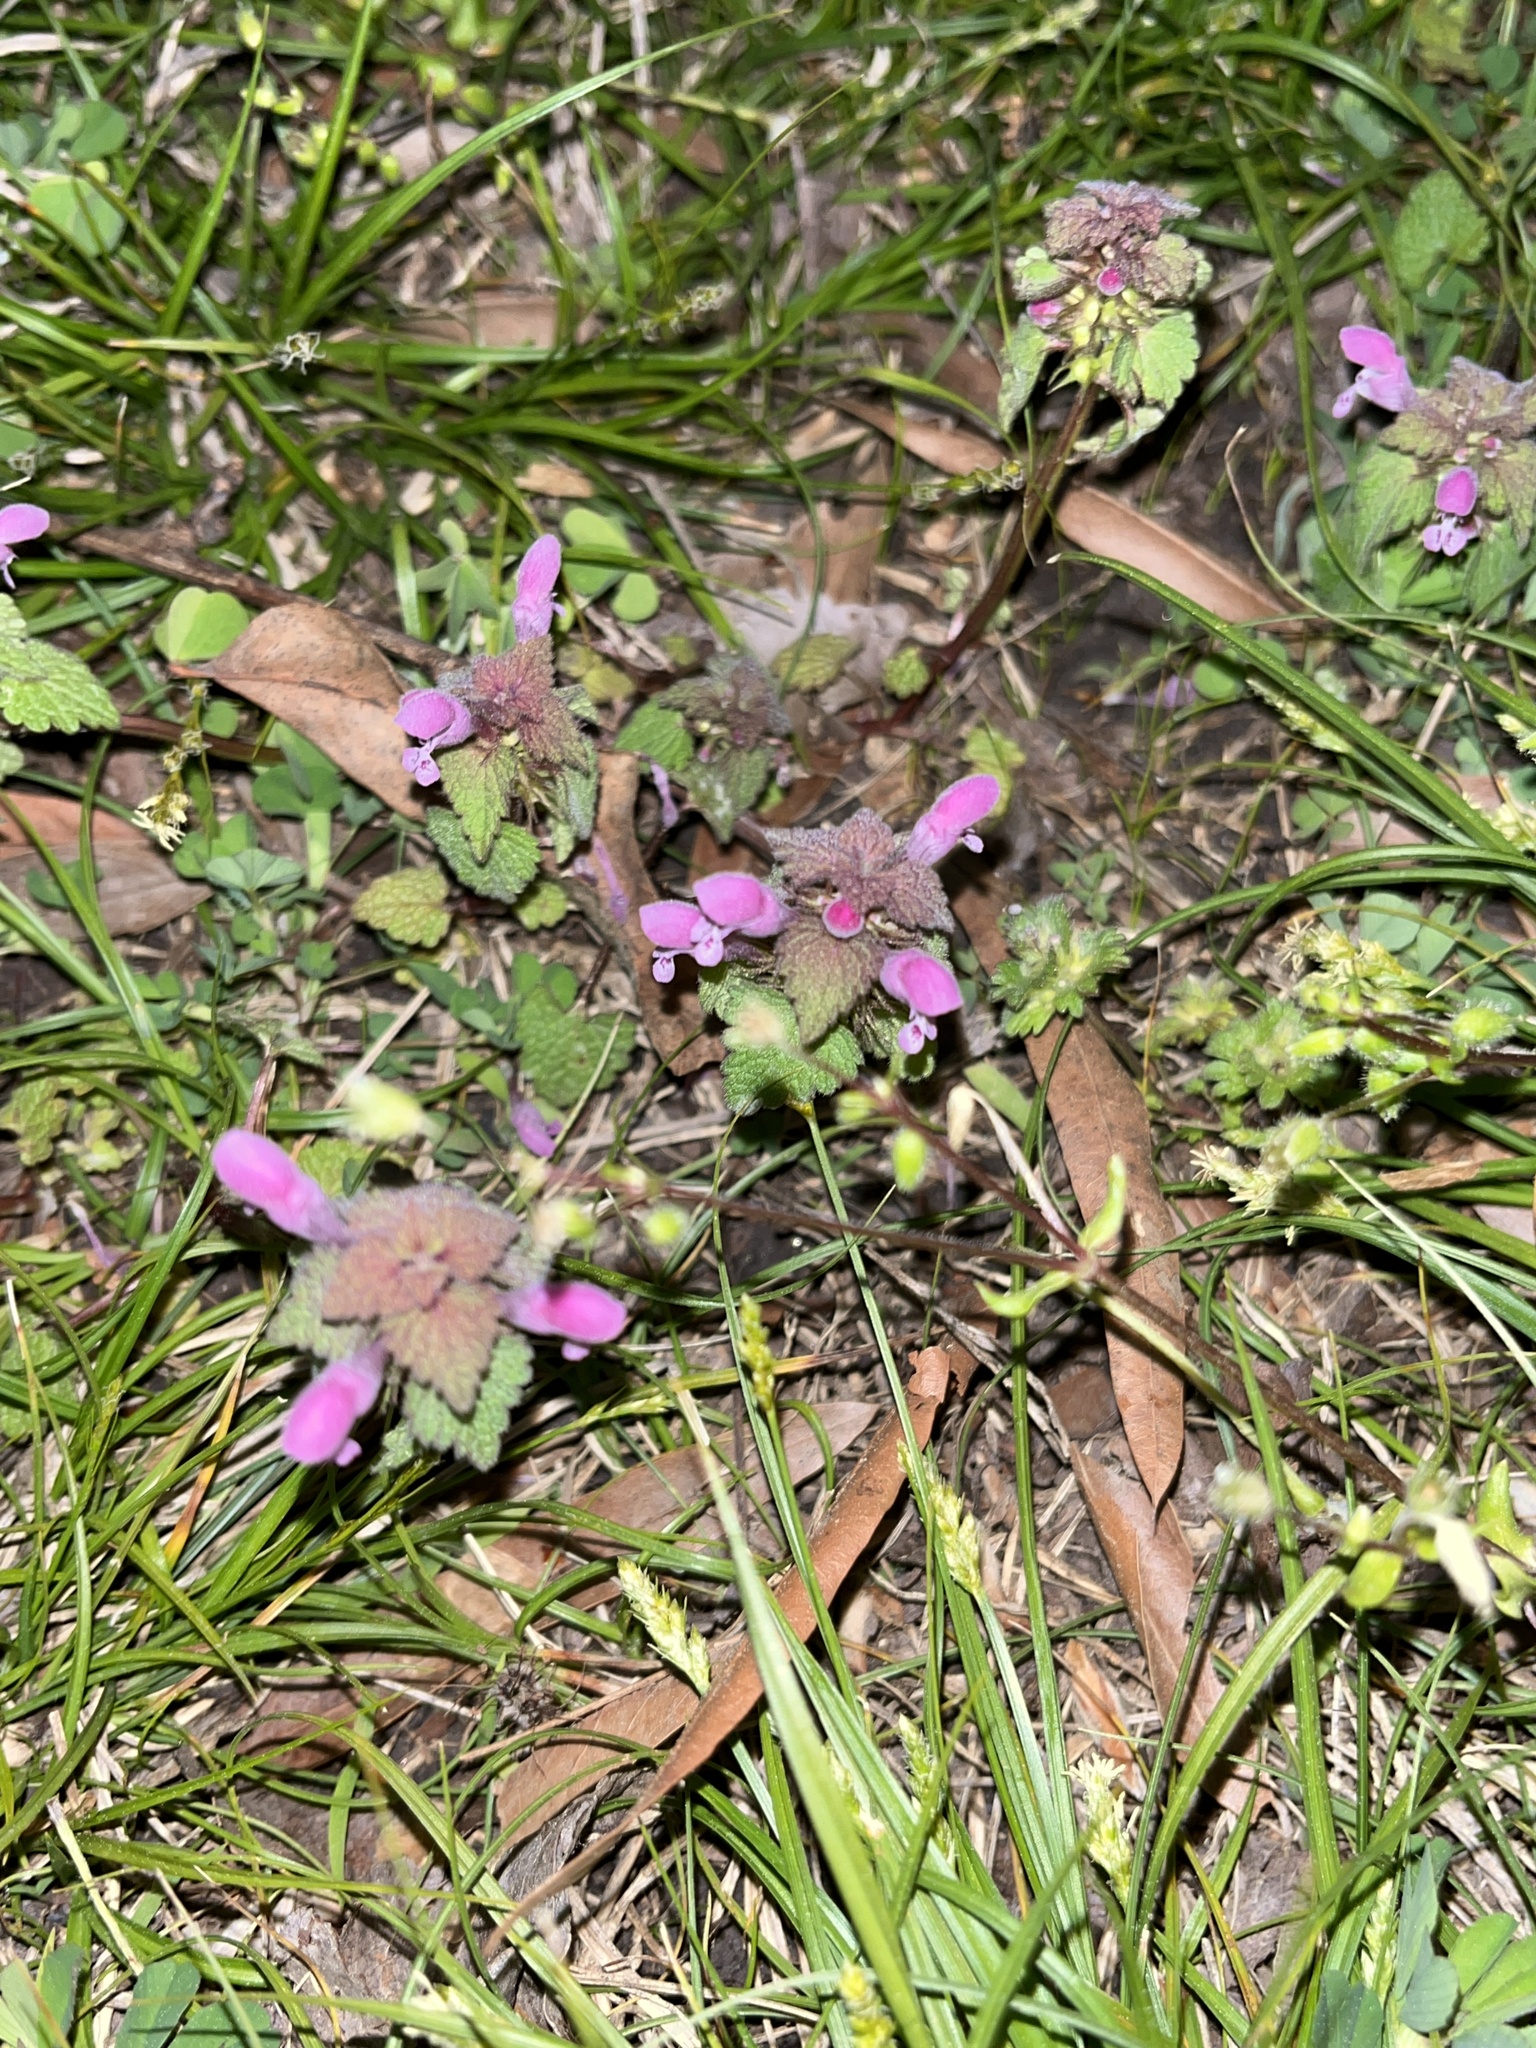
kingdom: Plantae
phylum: Tracheophyta
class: Magnoliopsida
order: Lamiales
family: Lamiaceae
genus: Lamium
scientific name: Lamium purpureum
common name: Red dead-nettle
